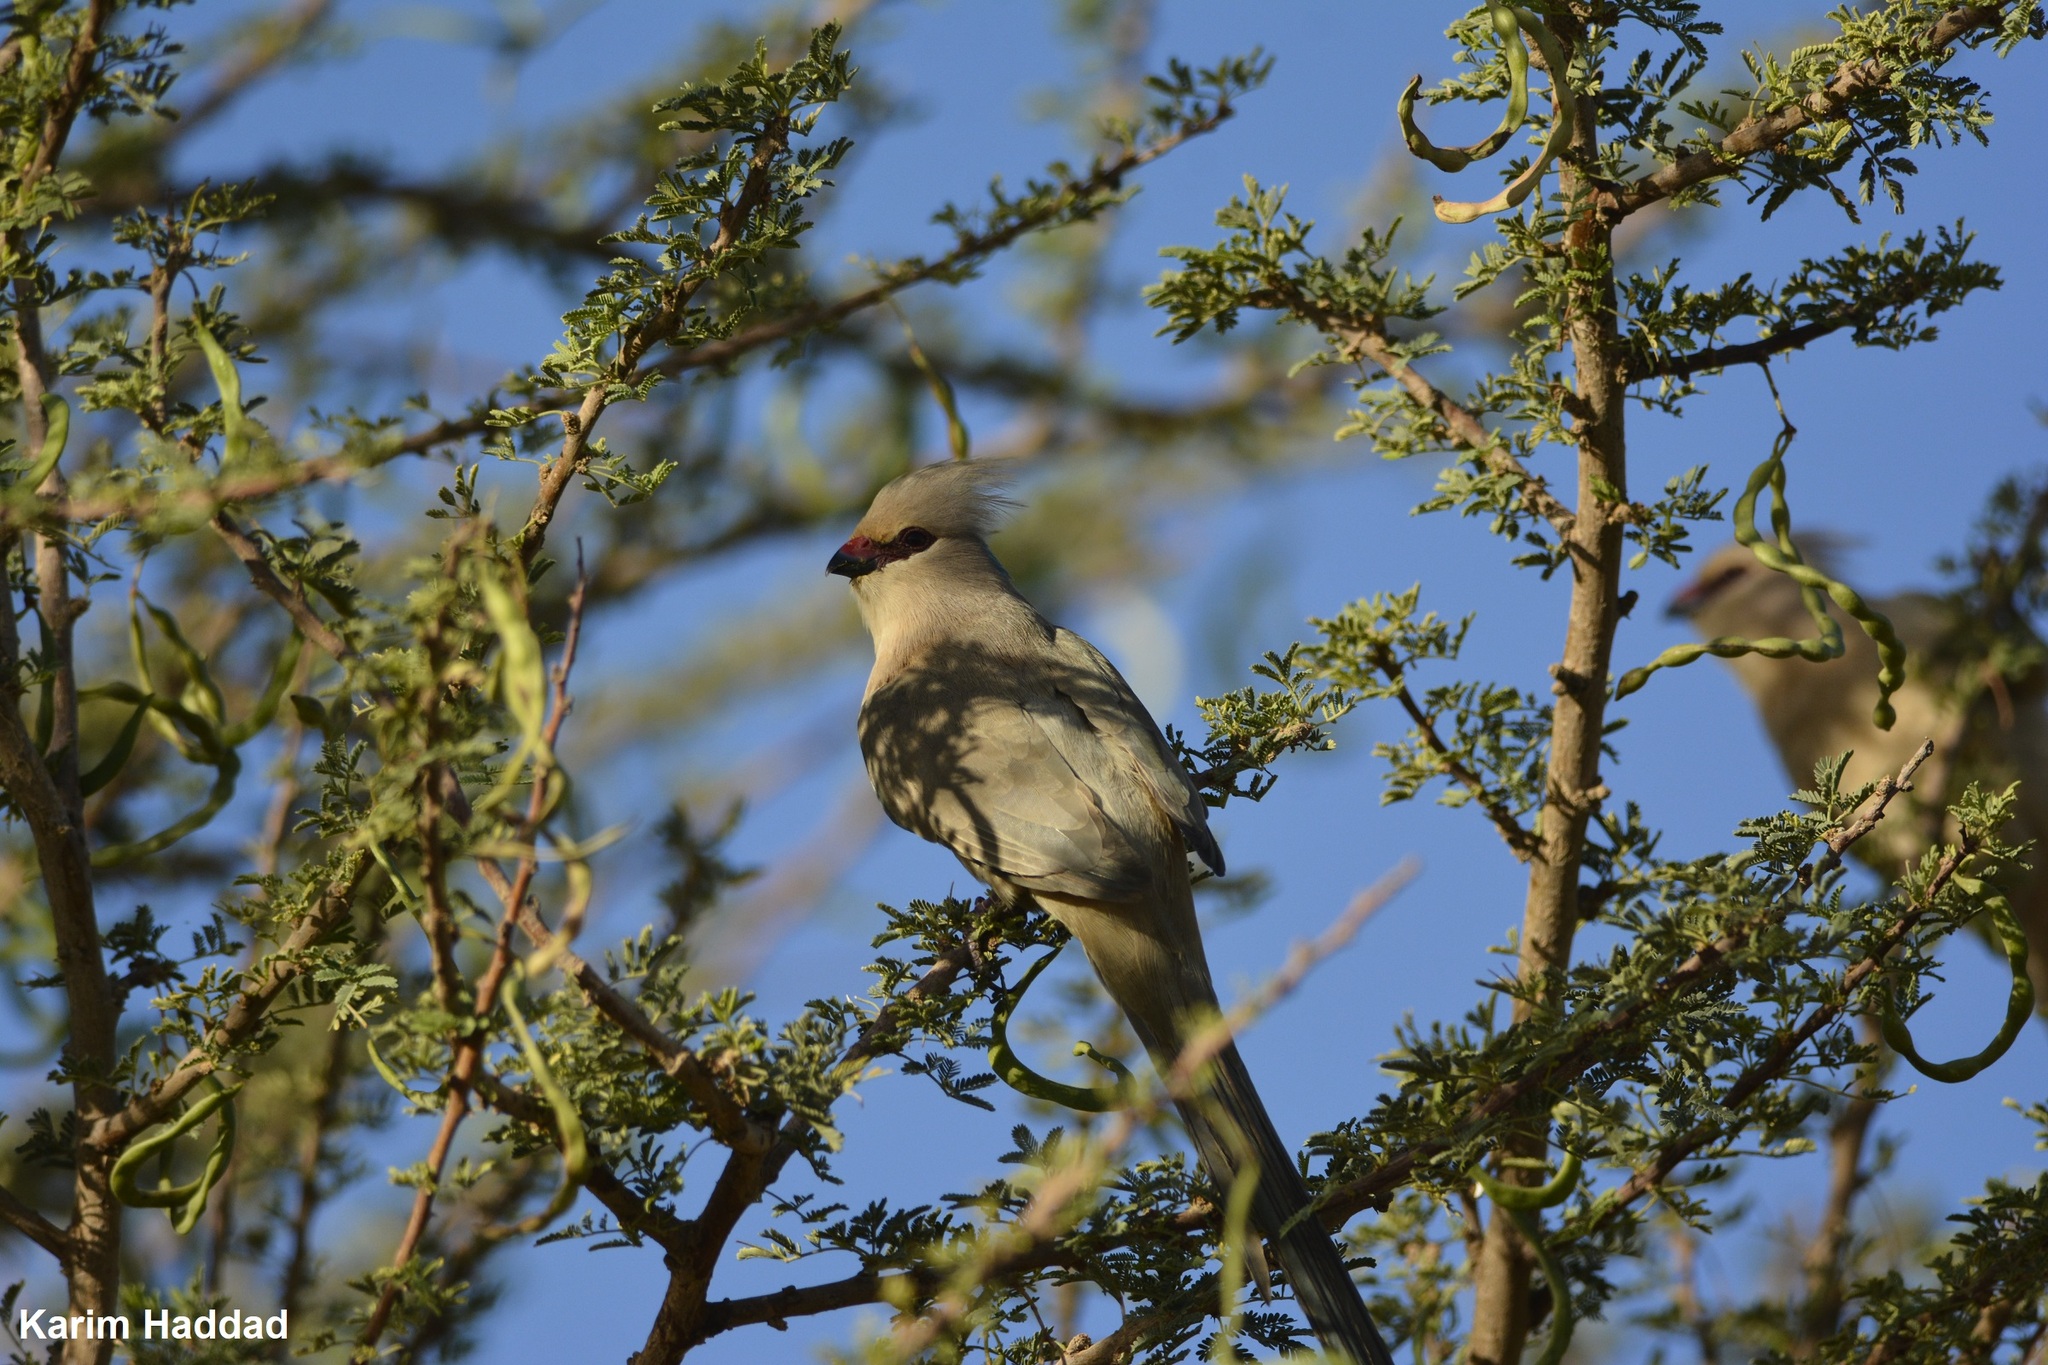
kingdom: Animalia
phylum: Chordata
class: Aves
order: Coliiformes
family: Coliidae
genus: Urocolius
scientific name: Urocolius macrourus
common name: Blue-naped mousebird
